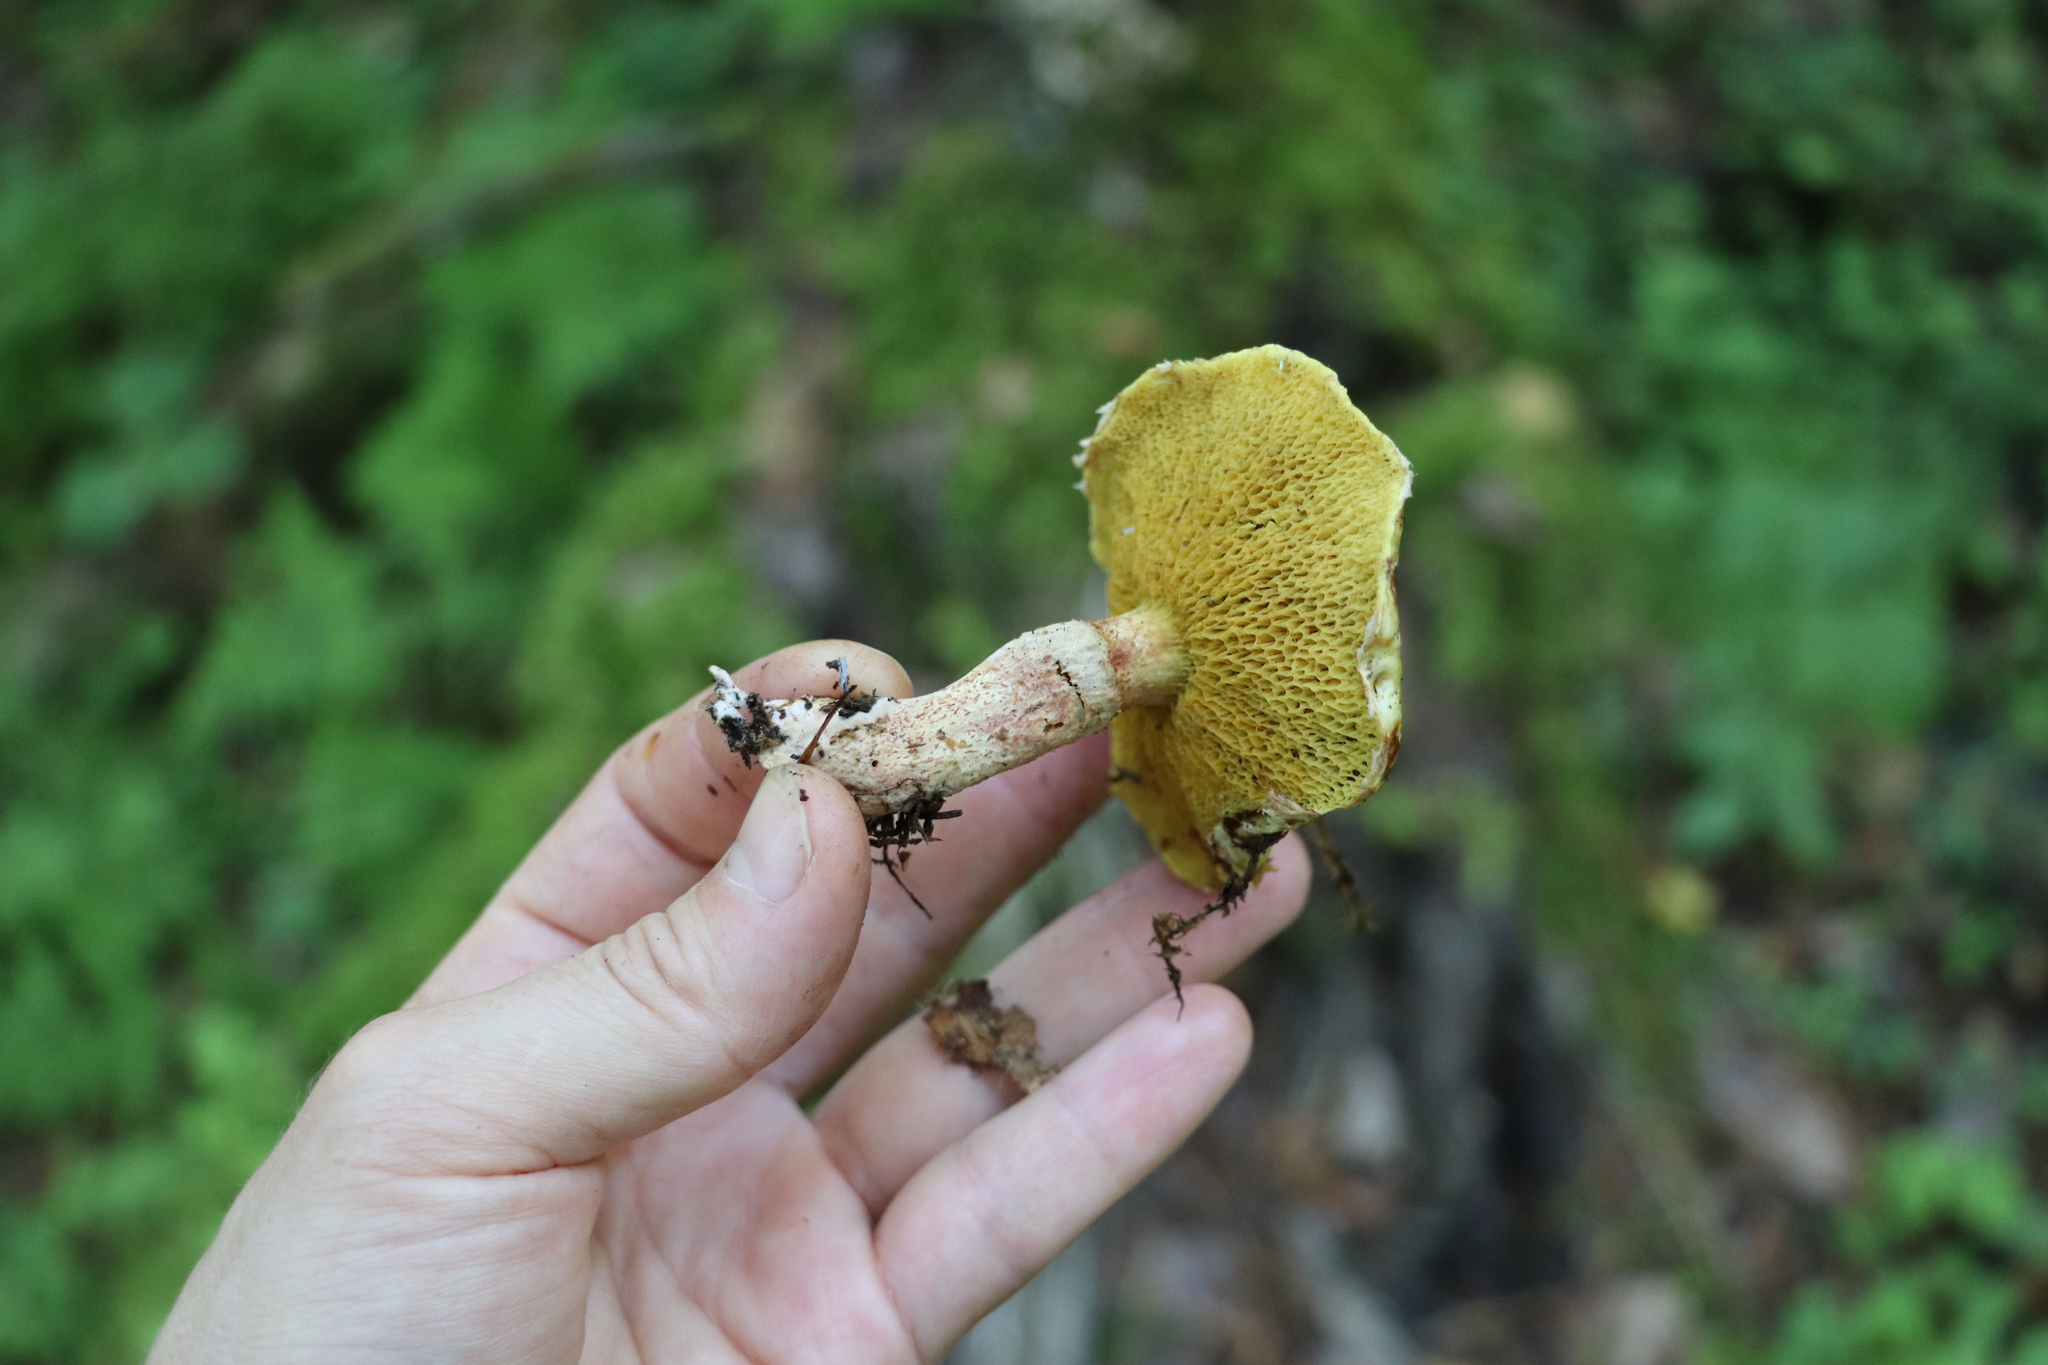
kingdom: Fungi
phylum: Basidiomycota
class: Agaricomycetes
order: Boletales
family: Suillaceae
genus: Suillus
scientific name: Suillus americanus
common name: Chicken fat mushroom
